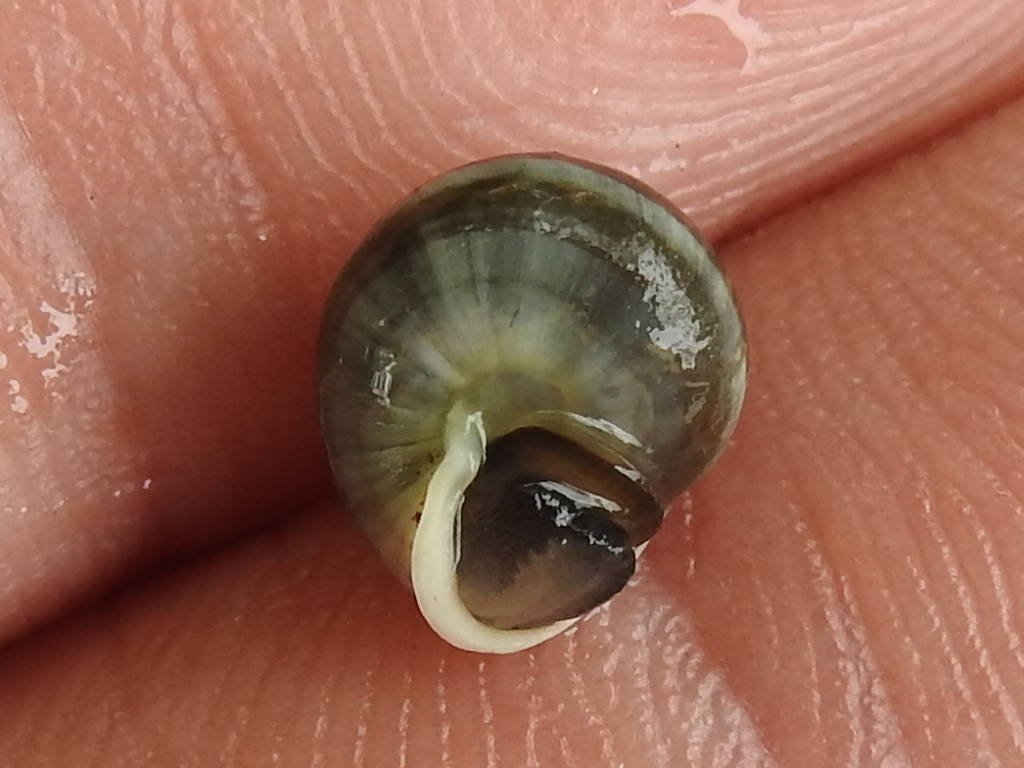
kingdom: Animalia
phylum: Mollusca
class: Gastropoda
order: Cycloneritida
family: Helicinidae
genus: Helicina
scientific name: Helicina orbiculata
